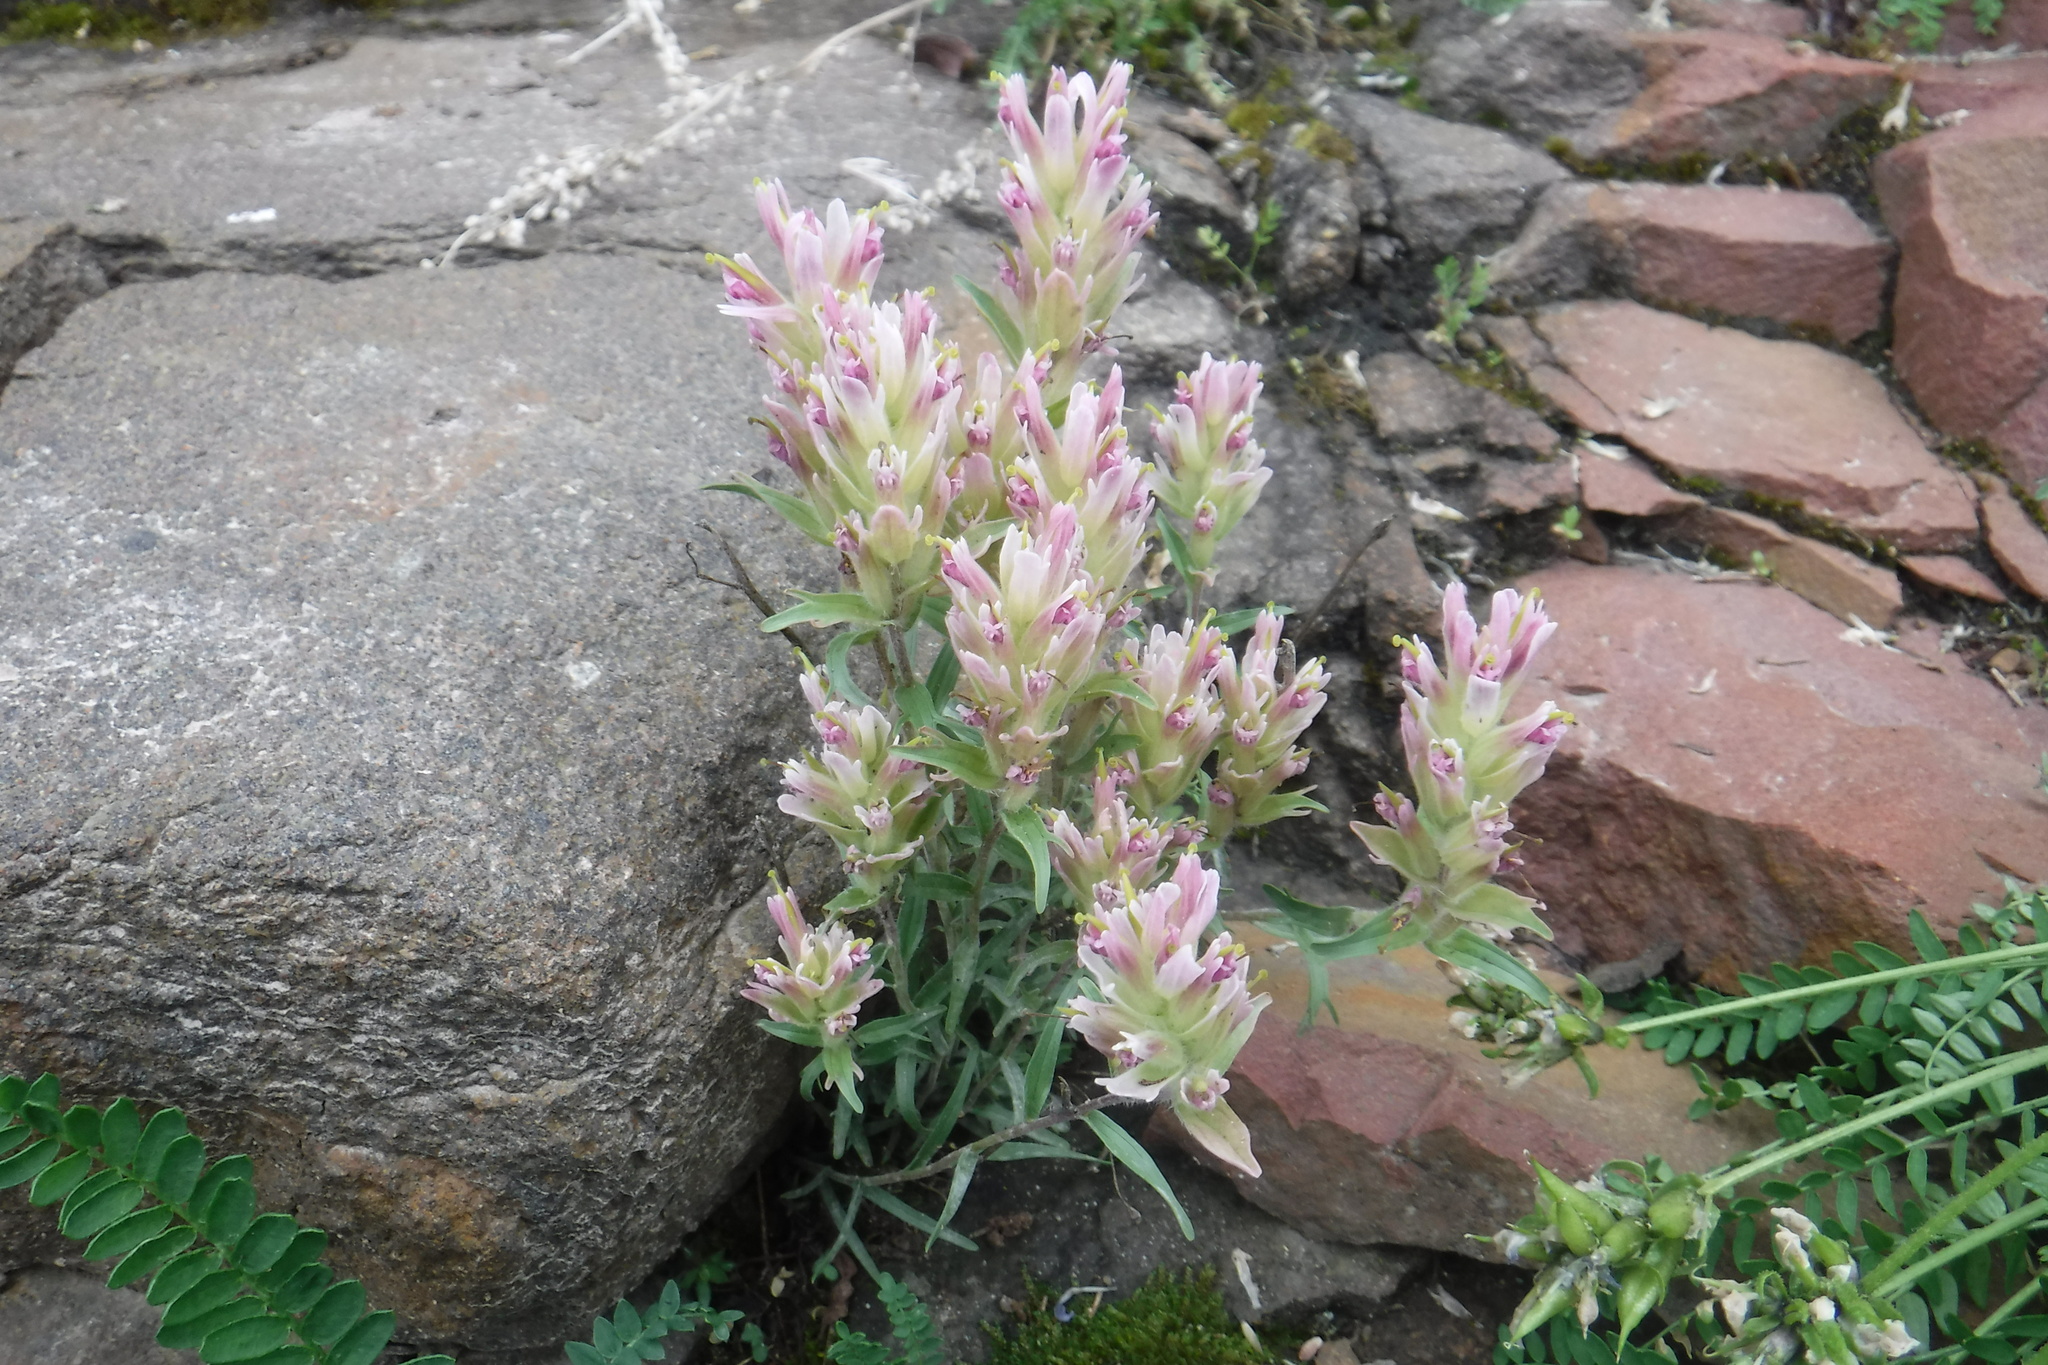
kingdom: Plantae
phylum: Tracheophyta
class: Magnoliopsida
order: Lamiales
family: Orobanchaceae
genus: Castilleja
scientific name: Castilleja elegans
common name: Elegant paintbrush
